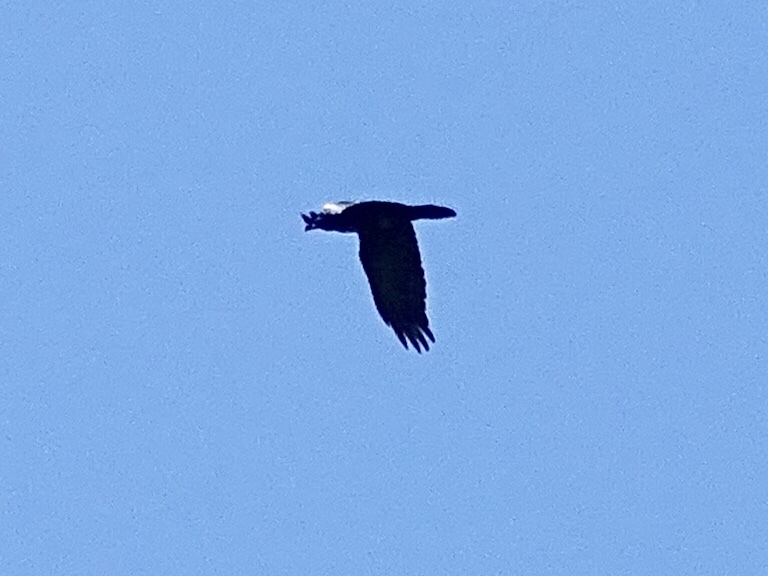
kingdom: Animalia
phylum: Chordata
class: Aves
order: Passeriformes
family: Corvidae
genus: Corvus
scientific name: Corvus corax
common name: Common raven
